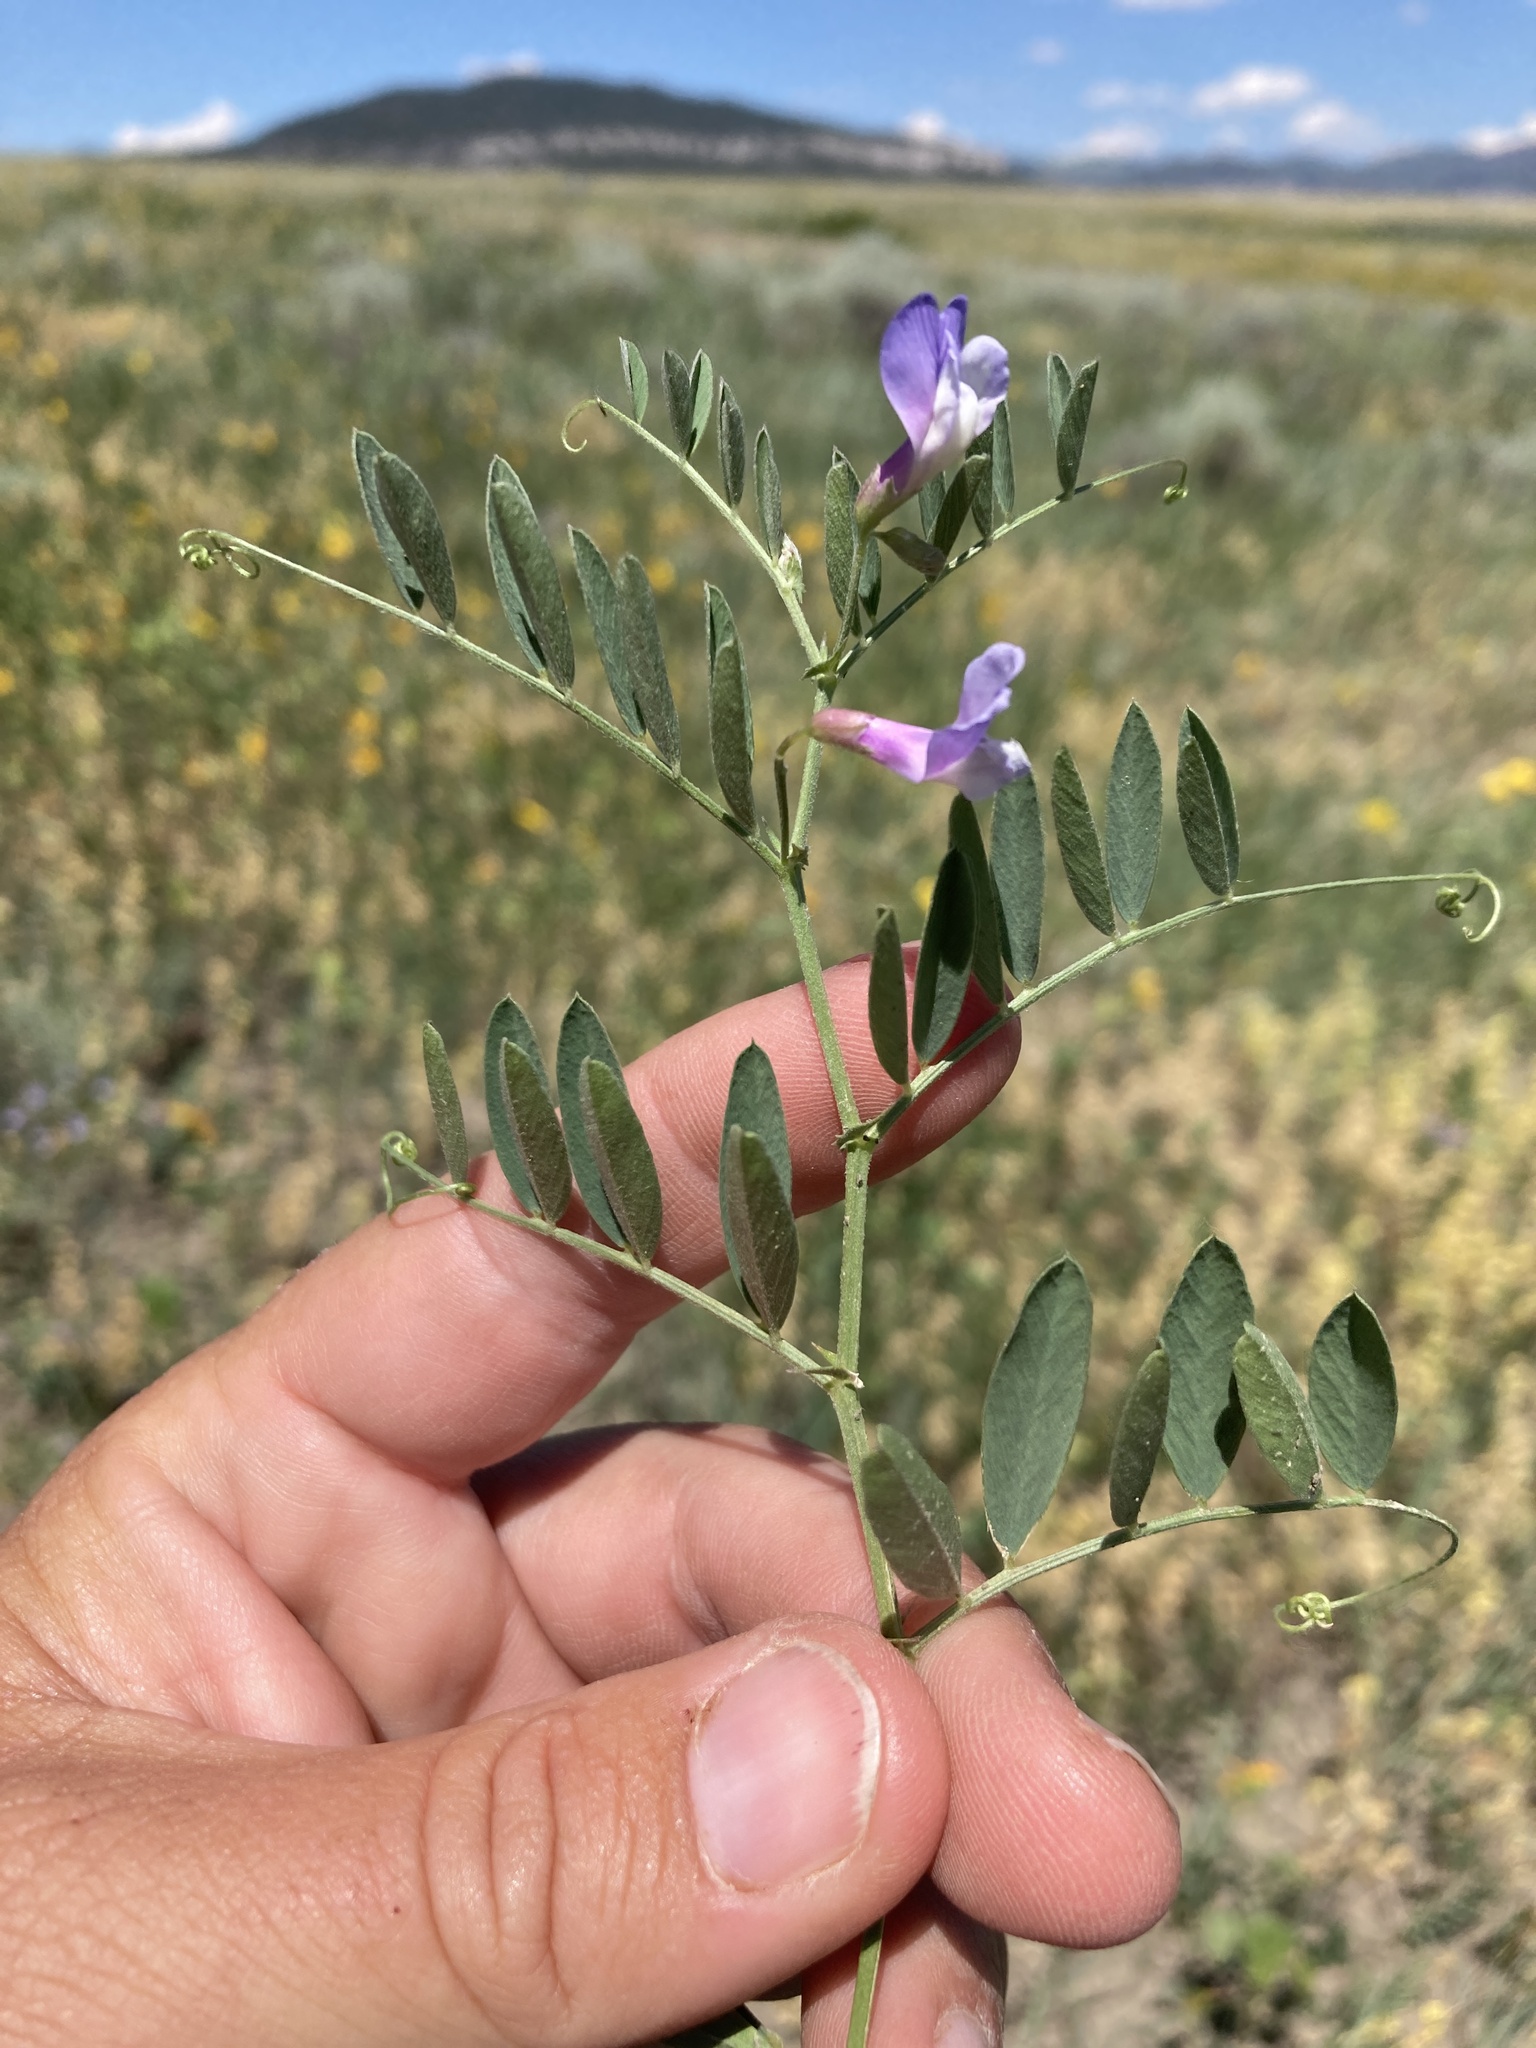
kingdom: Plantae
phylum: Tracheophyta
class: Magnoliopsida
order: Fabales
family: Fabaceae
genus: Vicia
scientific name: Vicia americana
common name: American vetch
